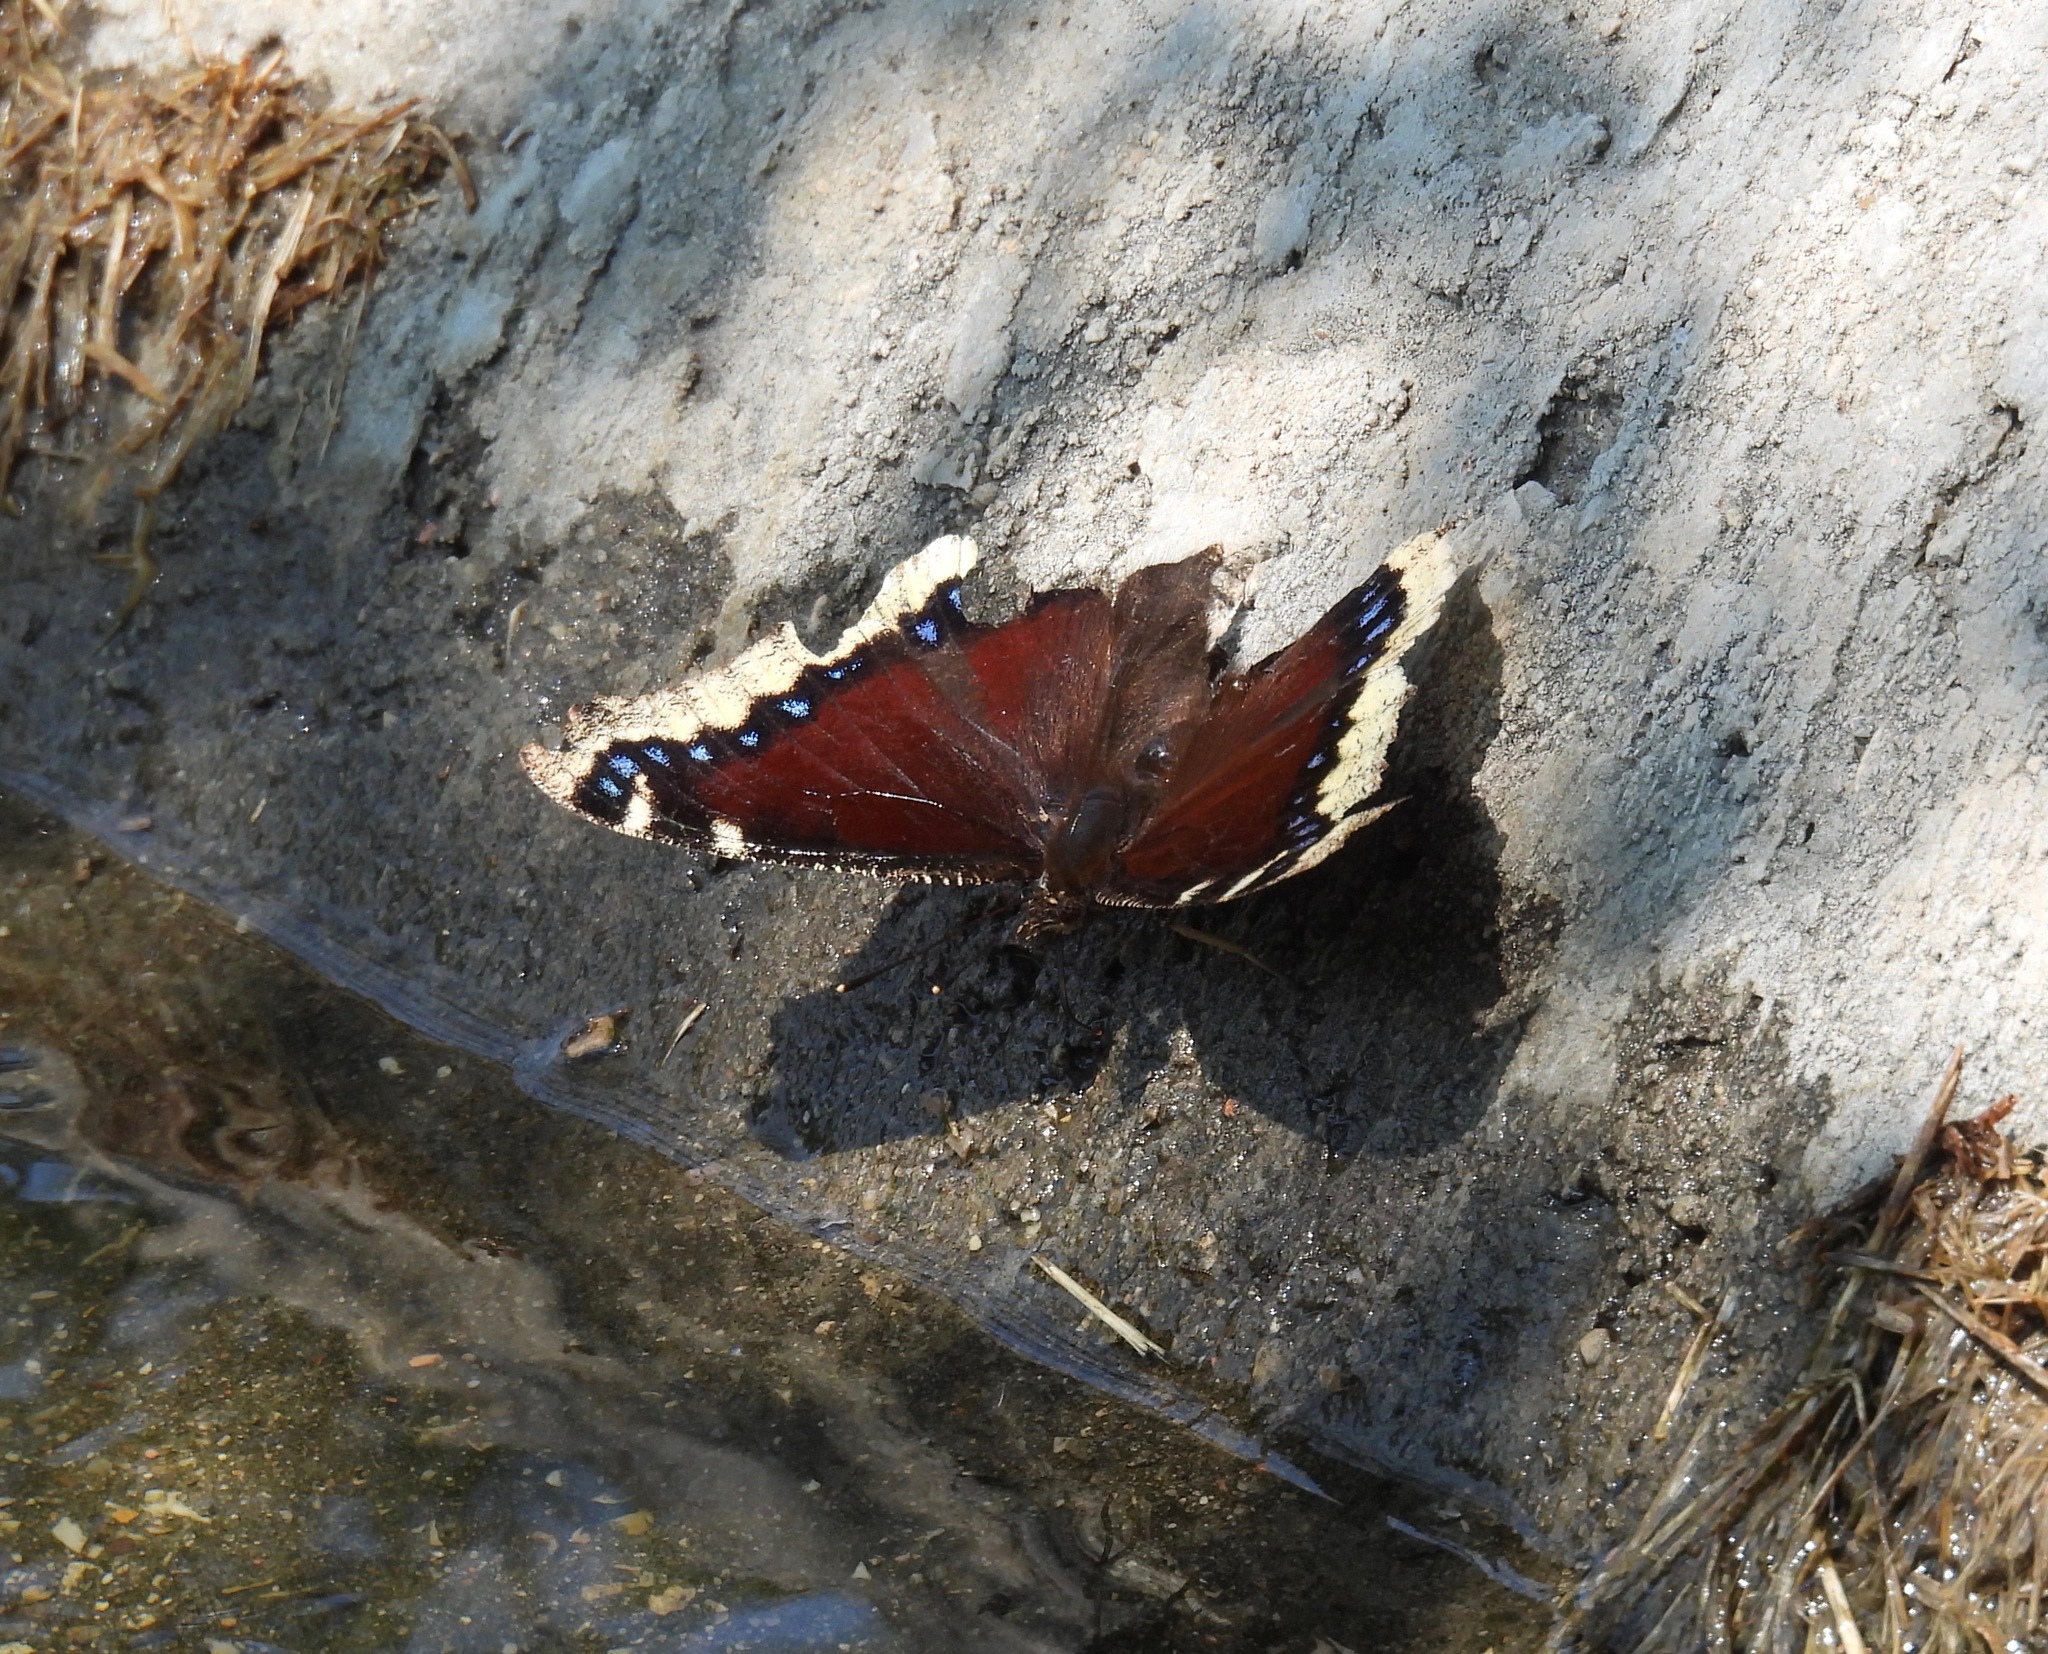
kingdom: Animalia
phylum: Arthropoda
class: Insecta
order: Lepidoptera
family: Nymphalidae
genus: Nymphalis
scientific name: Nymphalis antiopa
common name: Camberwell beauty
